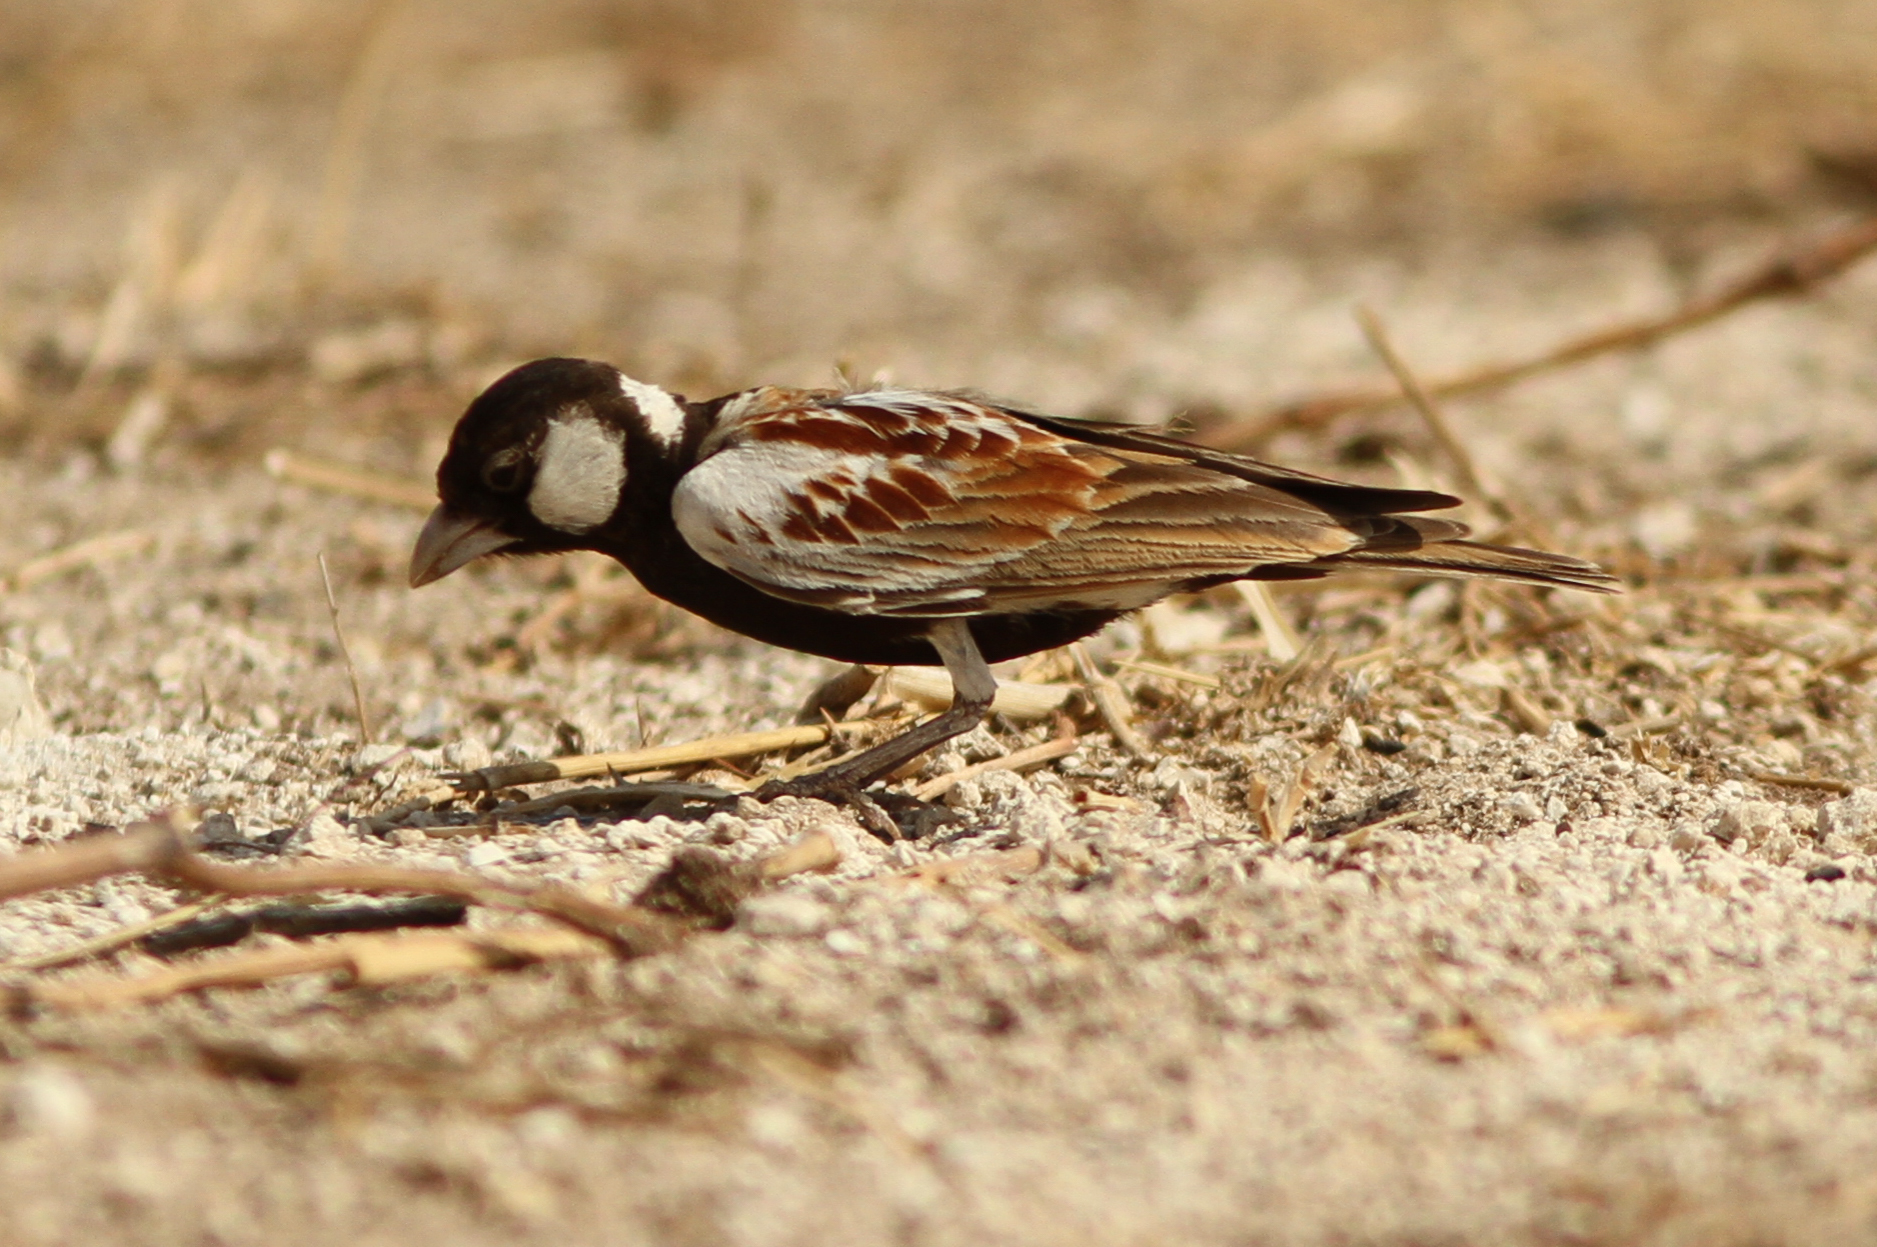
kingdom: Animalia
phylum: Chordata
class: Aves
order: Passeriformes
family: Alaudidae
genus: Eremopterix
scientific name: Eremopterix leucotis
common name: Chestnut-backed sparrow-lark
